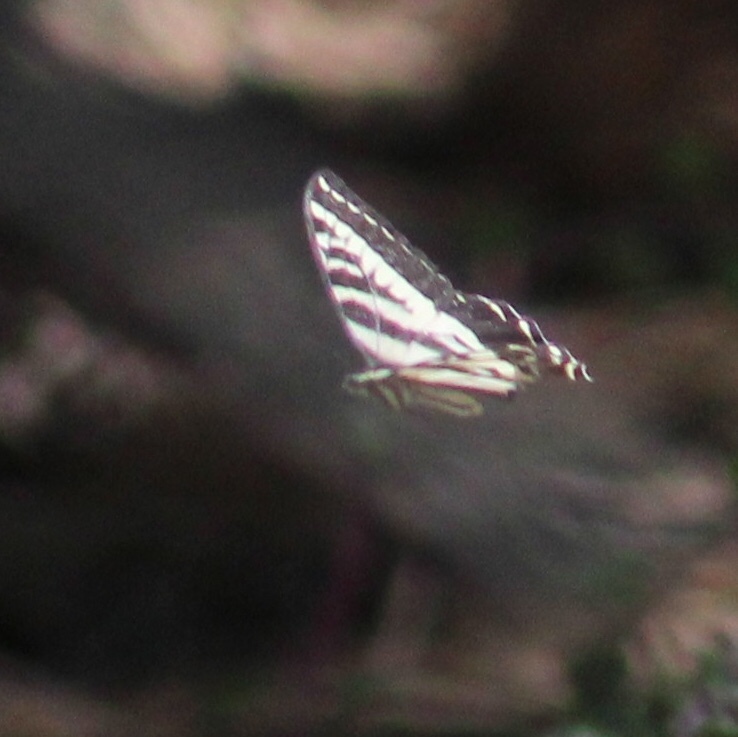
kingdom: Animalia
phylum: Arthropoda
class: Insecta
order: Lepidoptera
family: Papilionidae
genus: Papilio
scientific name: Papilio eurymedon
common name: Pale tiger swallowtail
